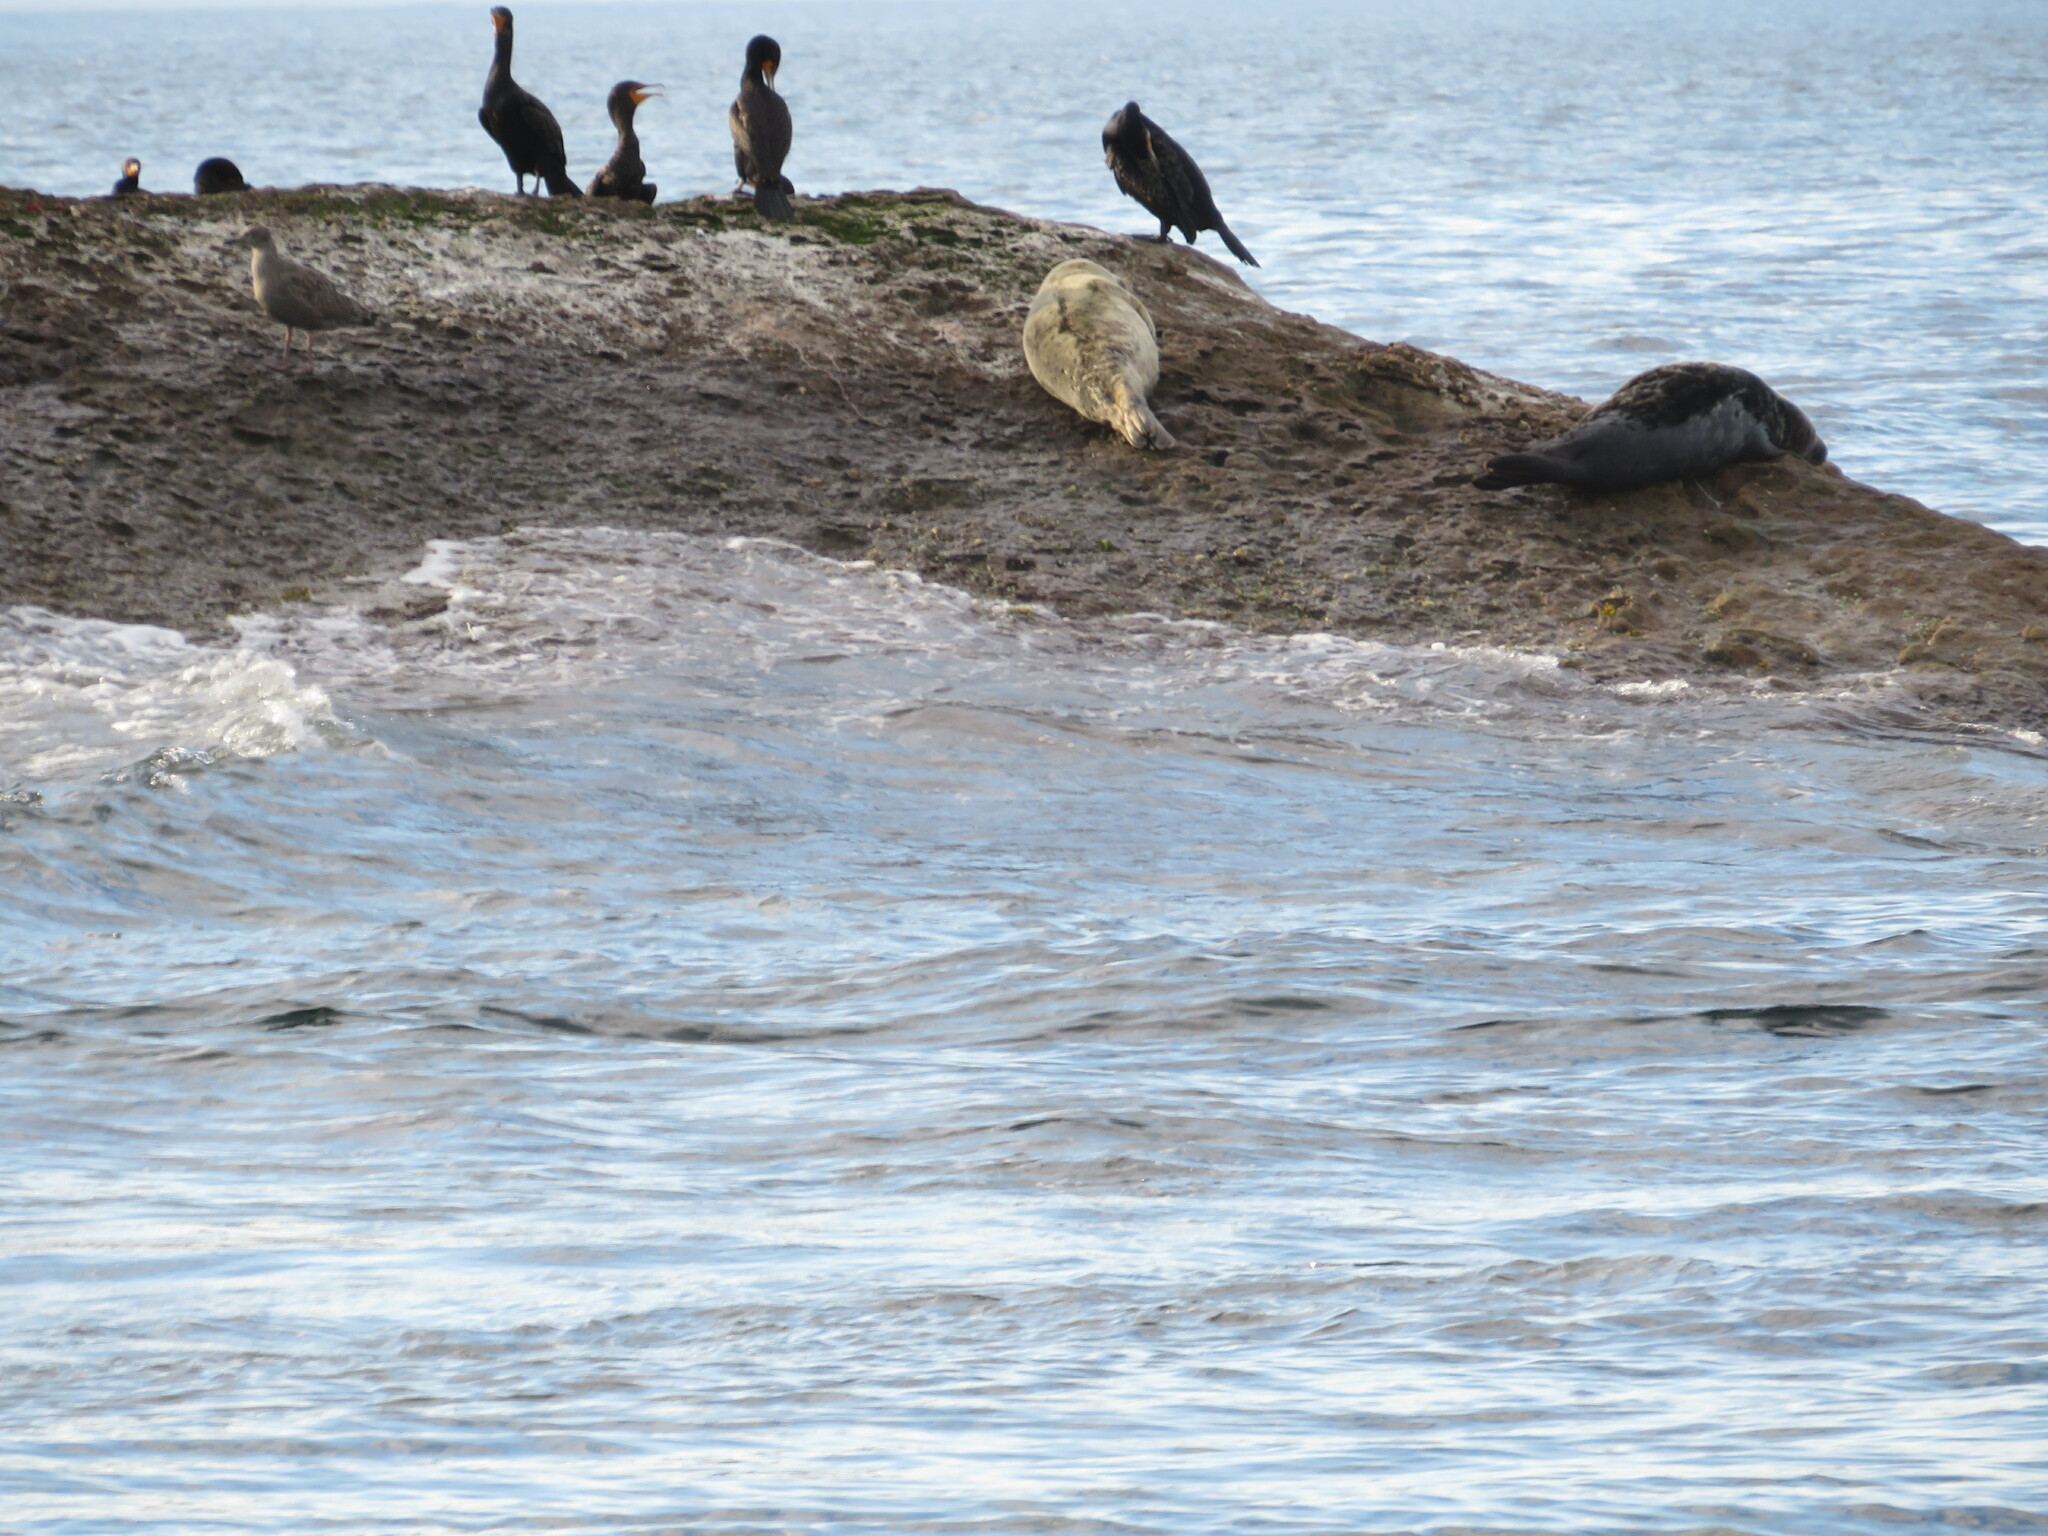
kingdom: Animalia
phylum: Chordata
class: Mammalia
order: Carnivora
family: Phocidae
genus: Halichoerus
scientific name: Halichoerus grypus
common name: Grey seal
